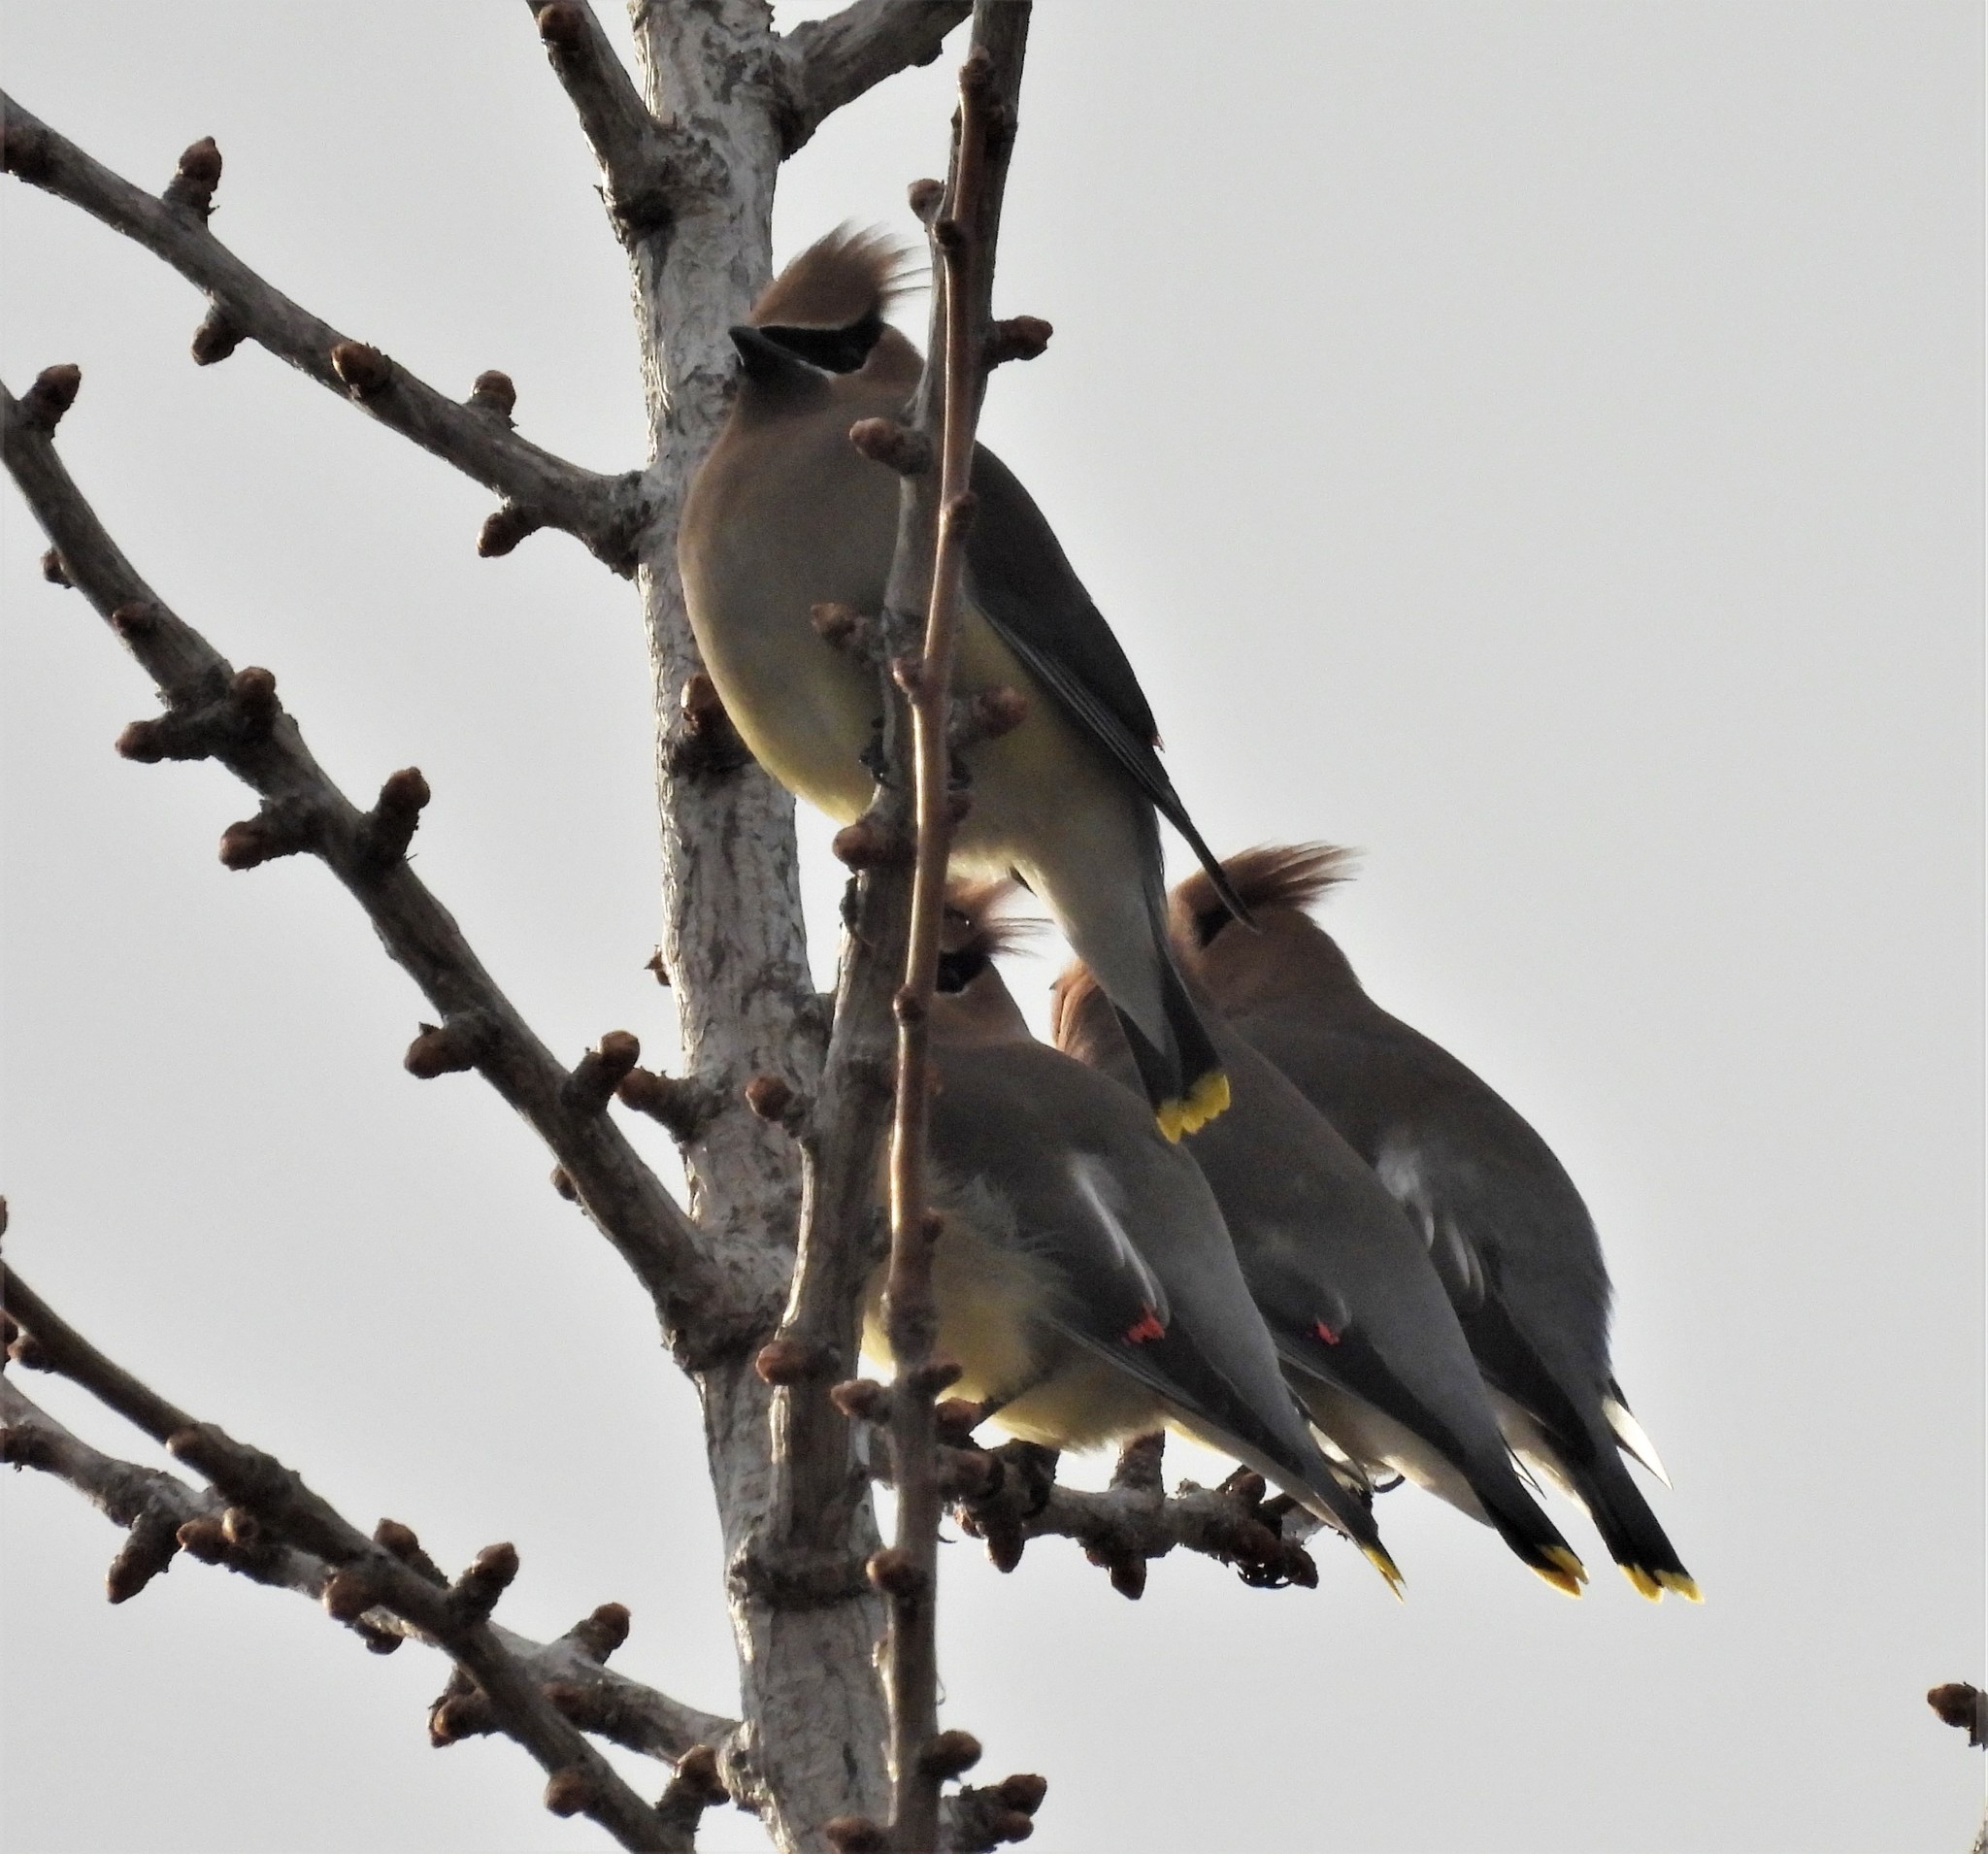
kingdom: Animalia
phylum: Chordata
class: Aves
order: Passeriformes
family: Bombycillidae
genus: Bombycilla
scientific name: Bombycilla cedrorum
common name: Cedar waxwing
